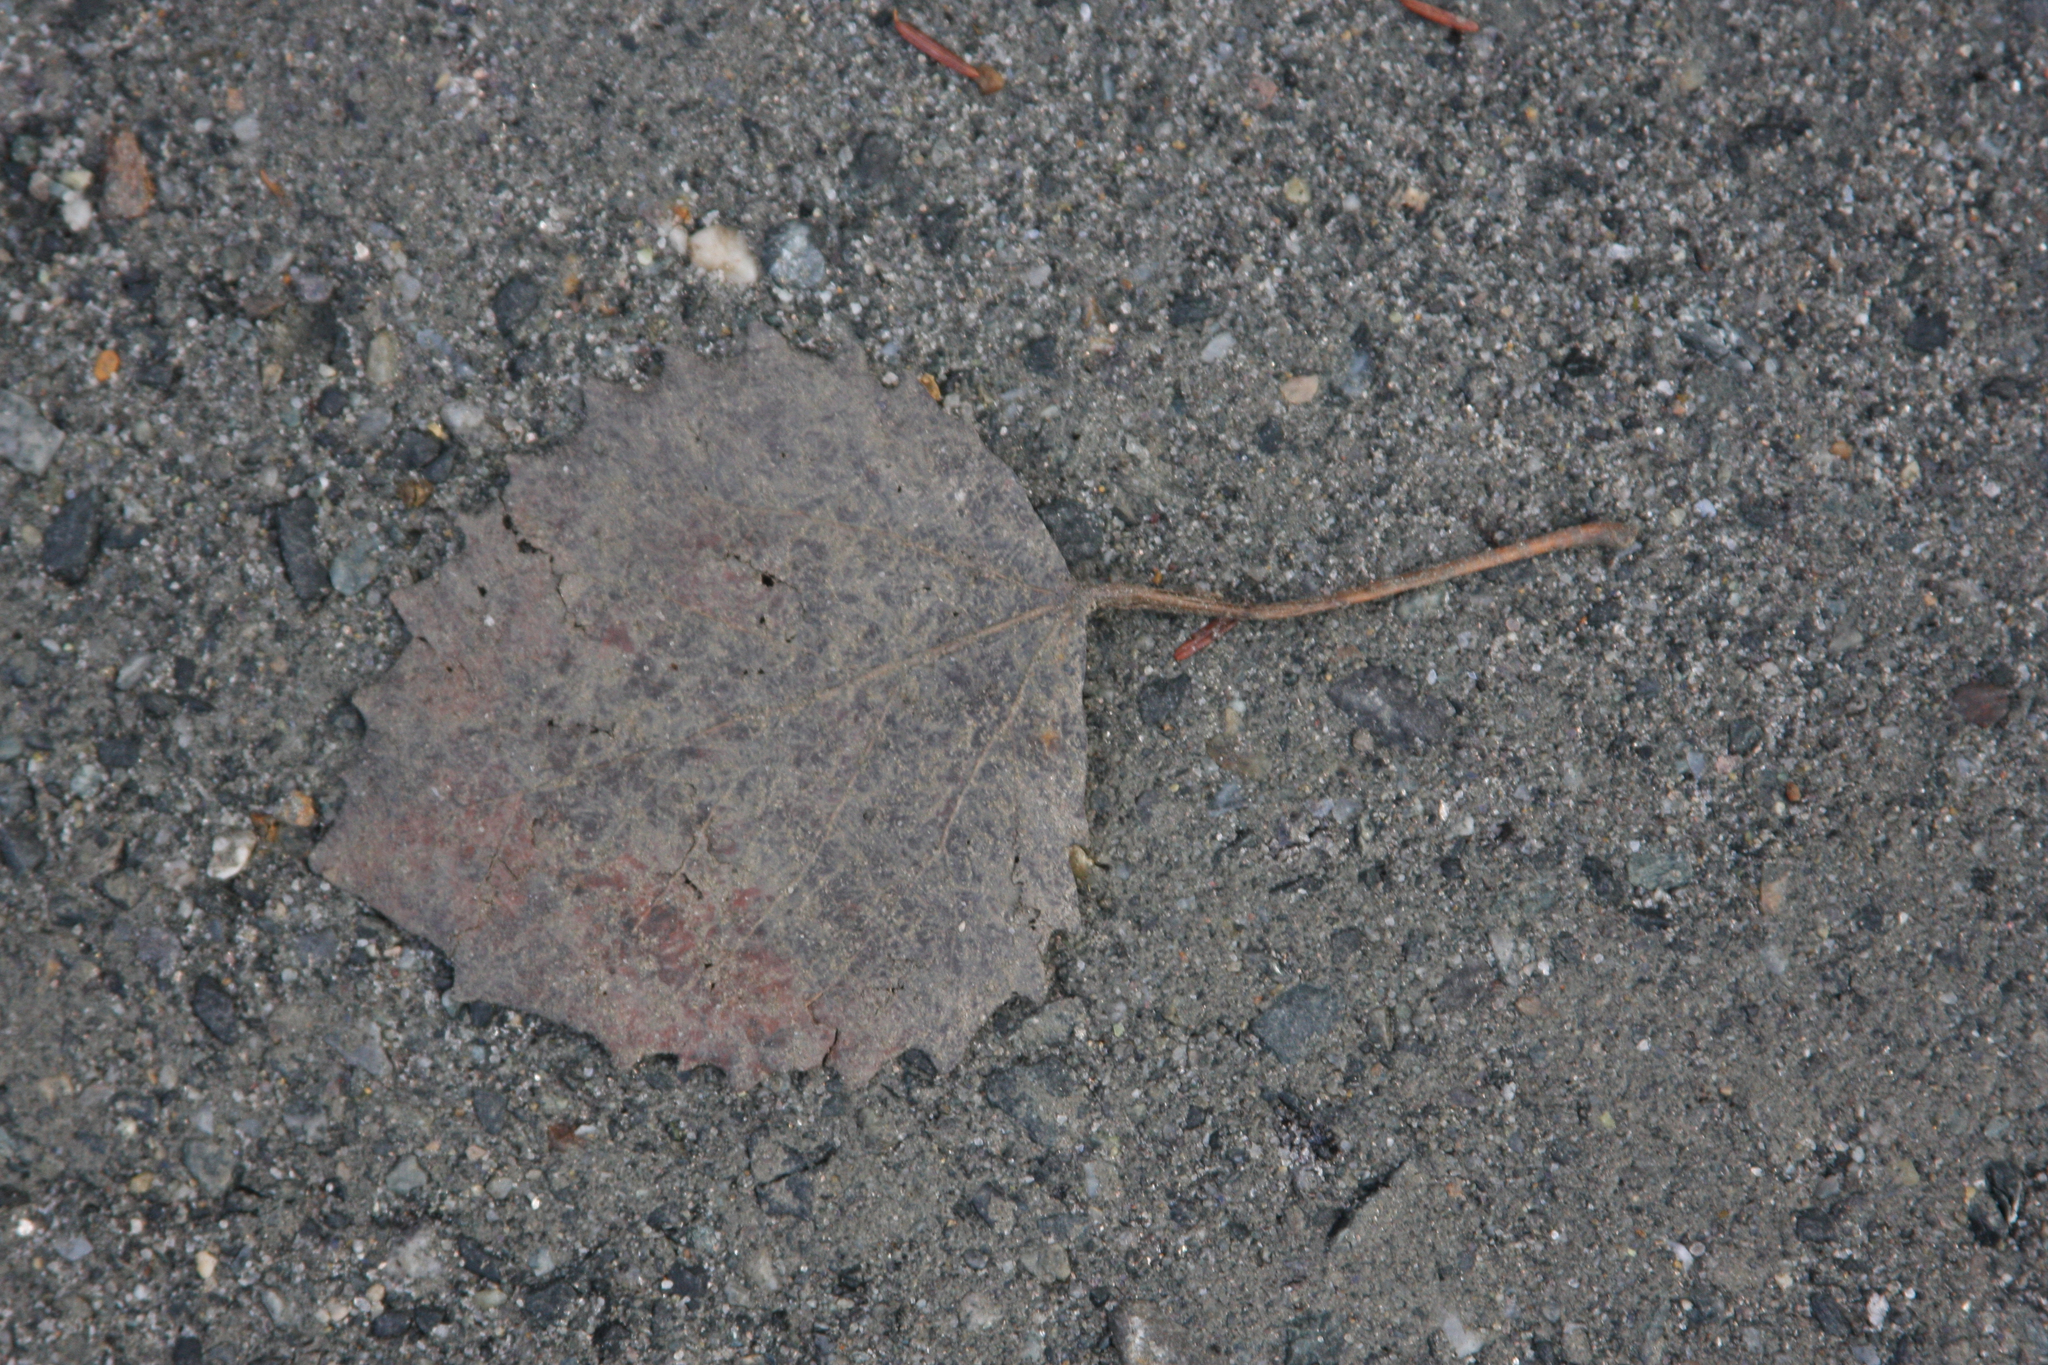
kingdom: Plantae
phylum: Tracheophyta
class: Magnoliopsida
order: Malpighiales
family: Salicaceae
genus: Populus
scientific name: Populus grandidentata
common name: Bigtooth aspen
